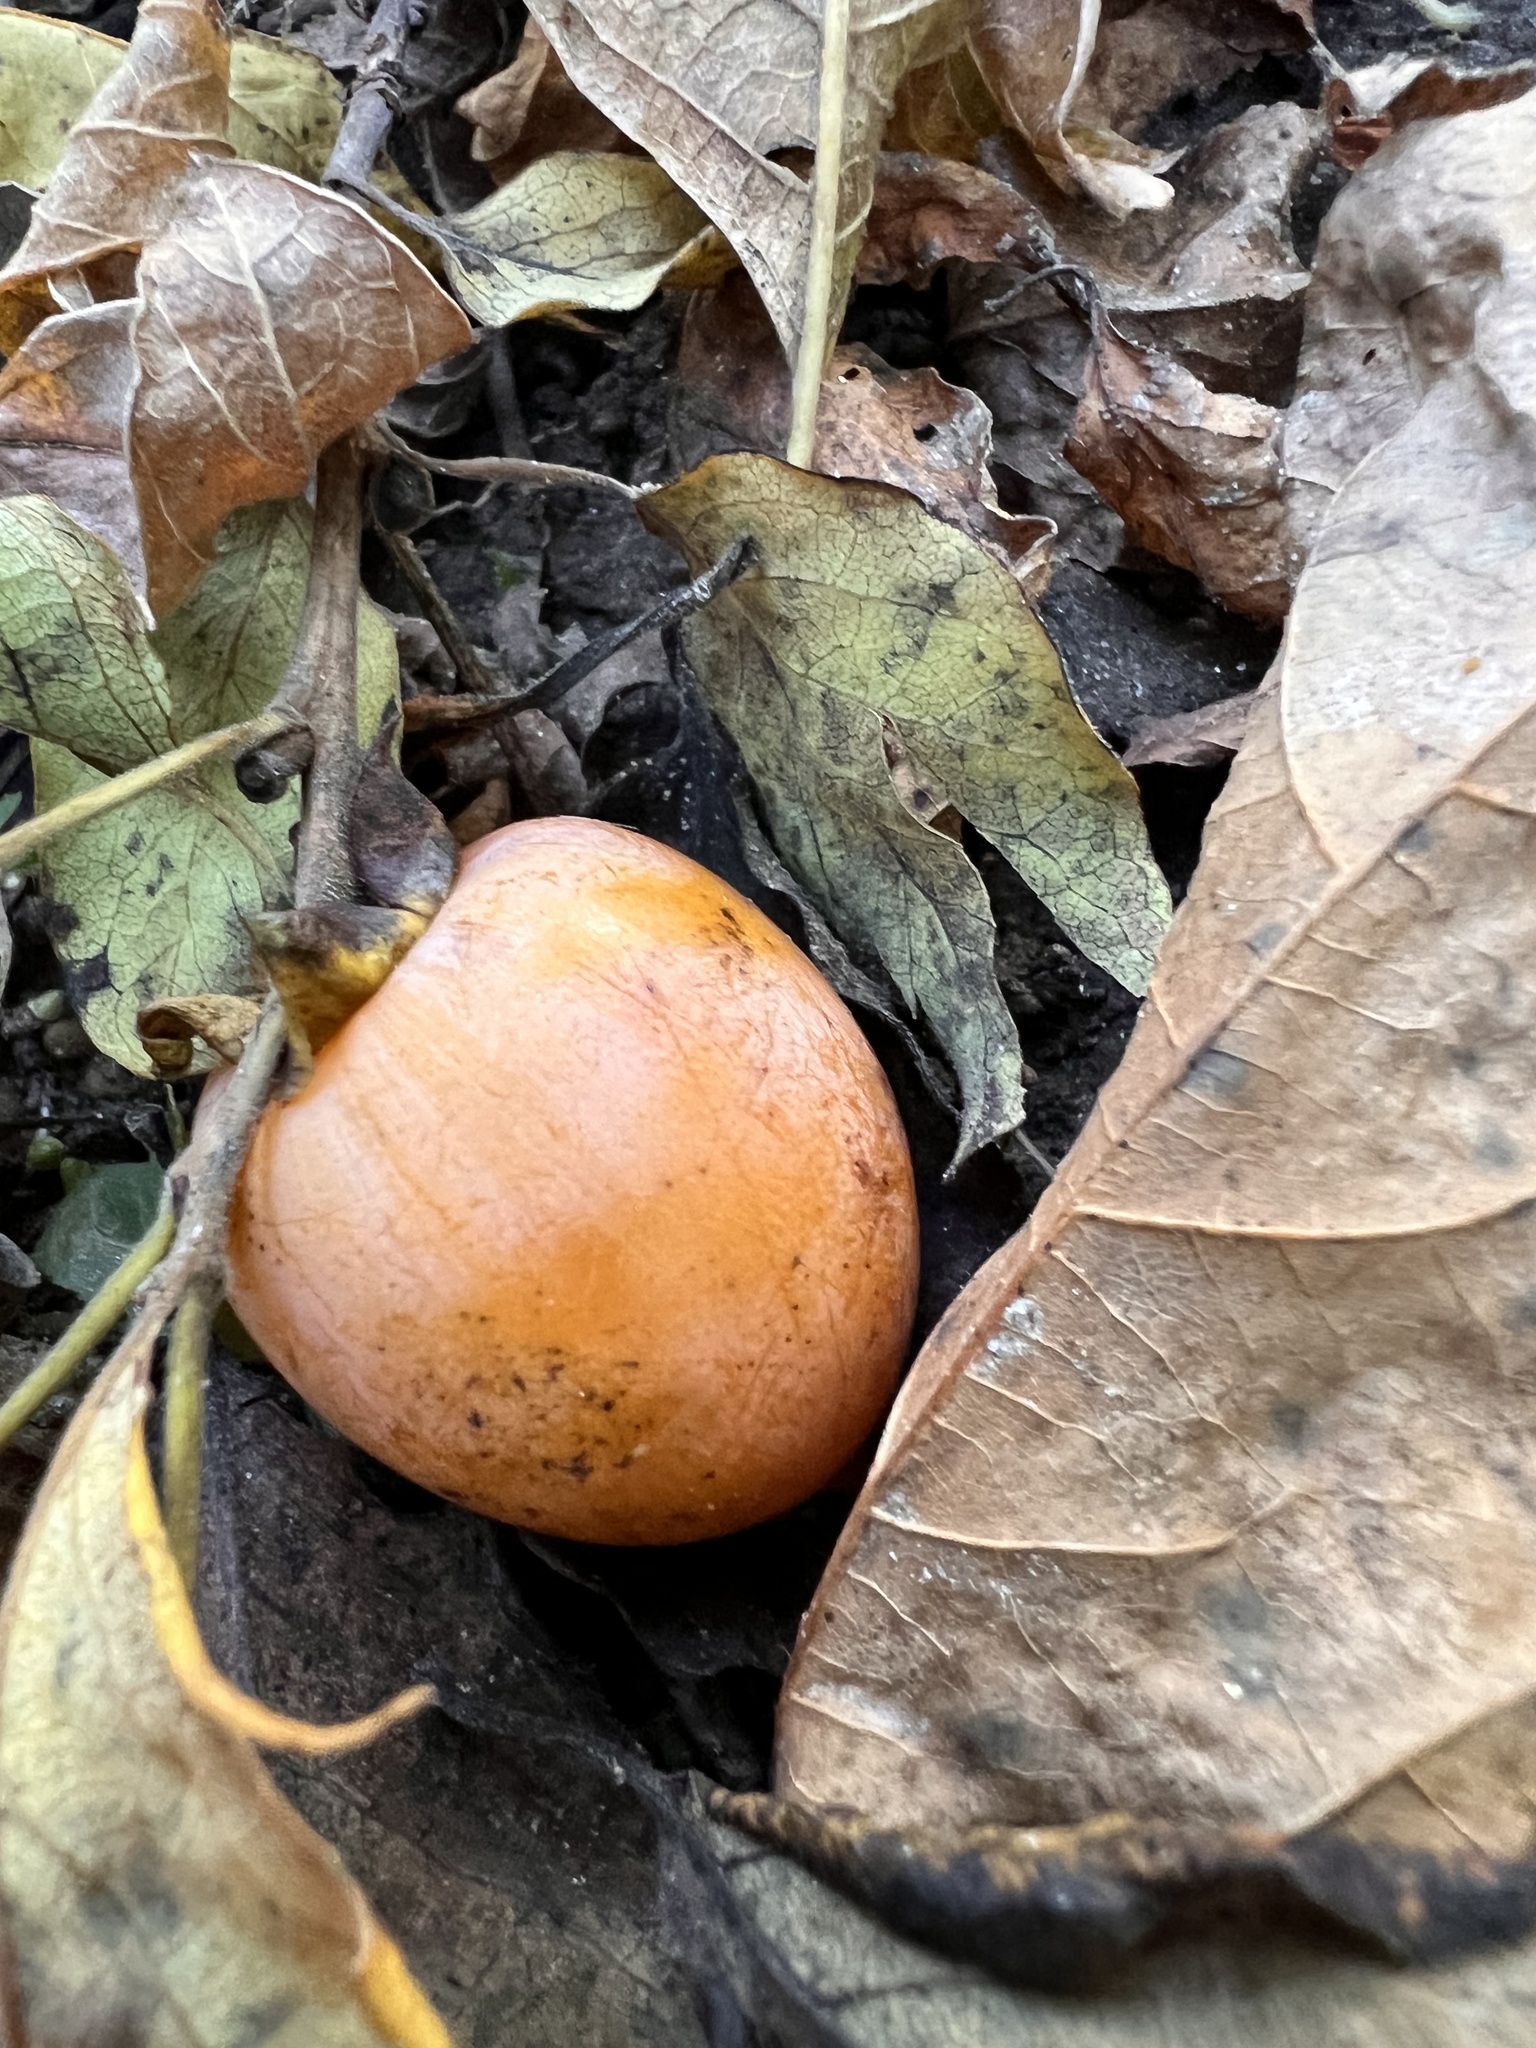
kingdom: Plantae
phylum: Tracheophyta
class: Magnoliopsida
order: Ericales
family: Ebenaceae
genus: Diospyros
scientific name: Diospyros virginiana
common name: Persimmon
